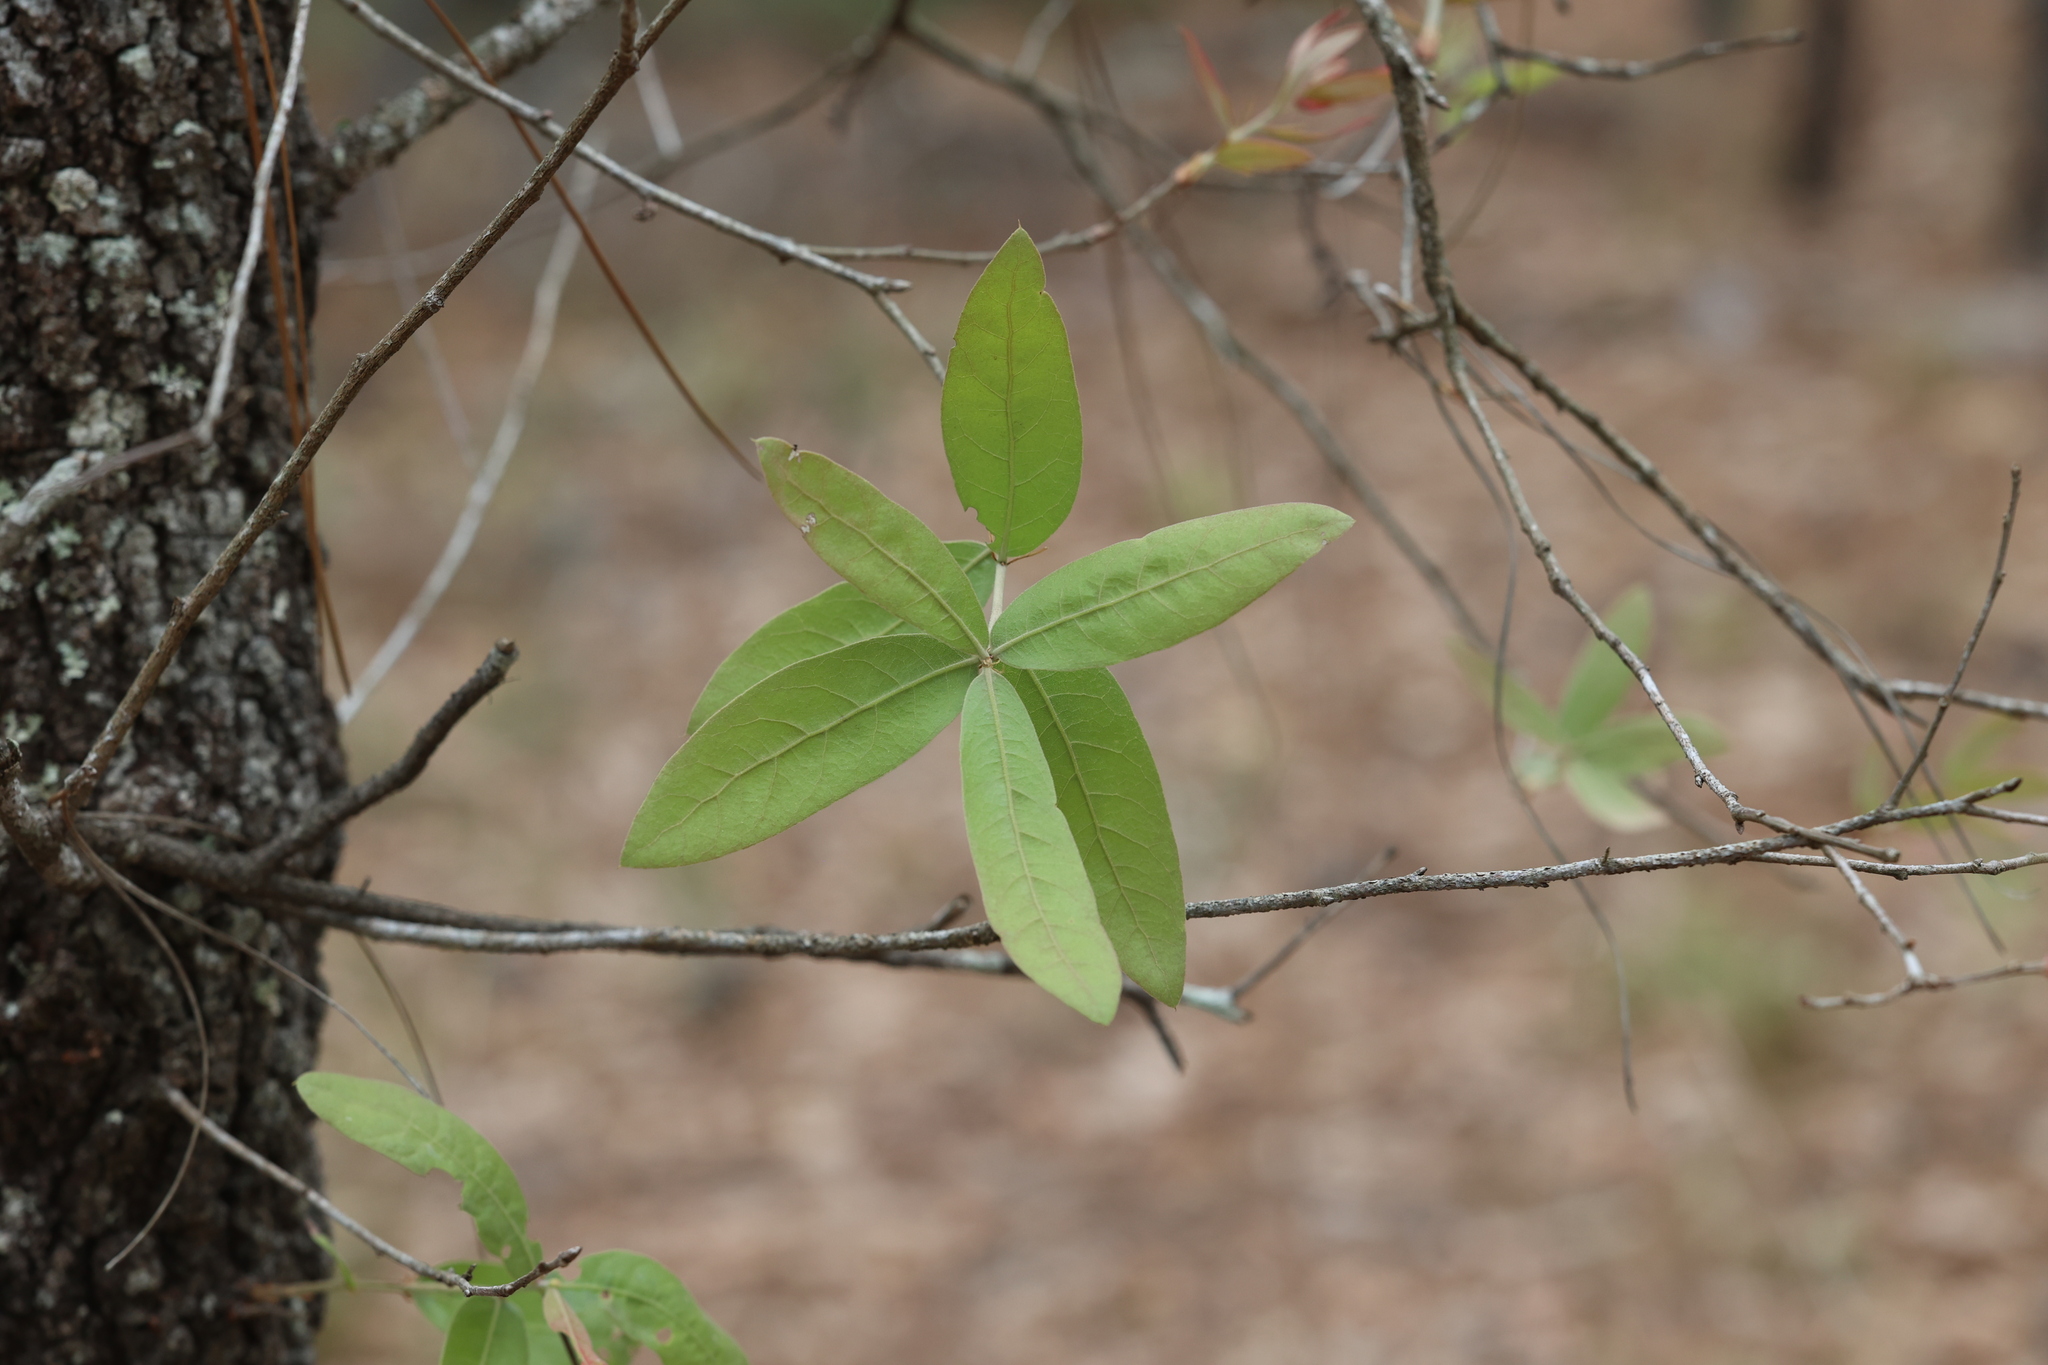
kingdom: Plantae
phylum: Tracheophyta
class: Magnoliopsida
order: Fagales
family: Fagaceae
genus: Quercus
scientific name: Quercus incana
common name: Bluejack oak
